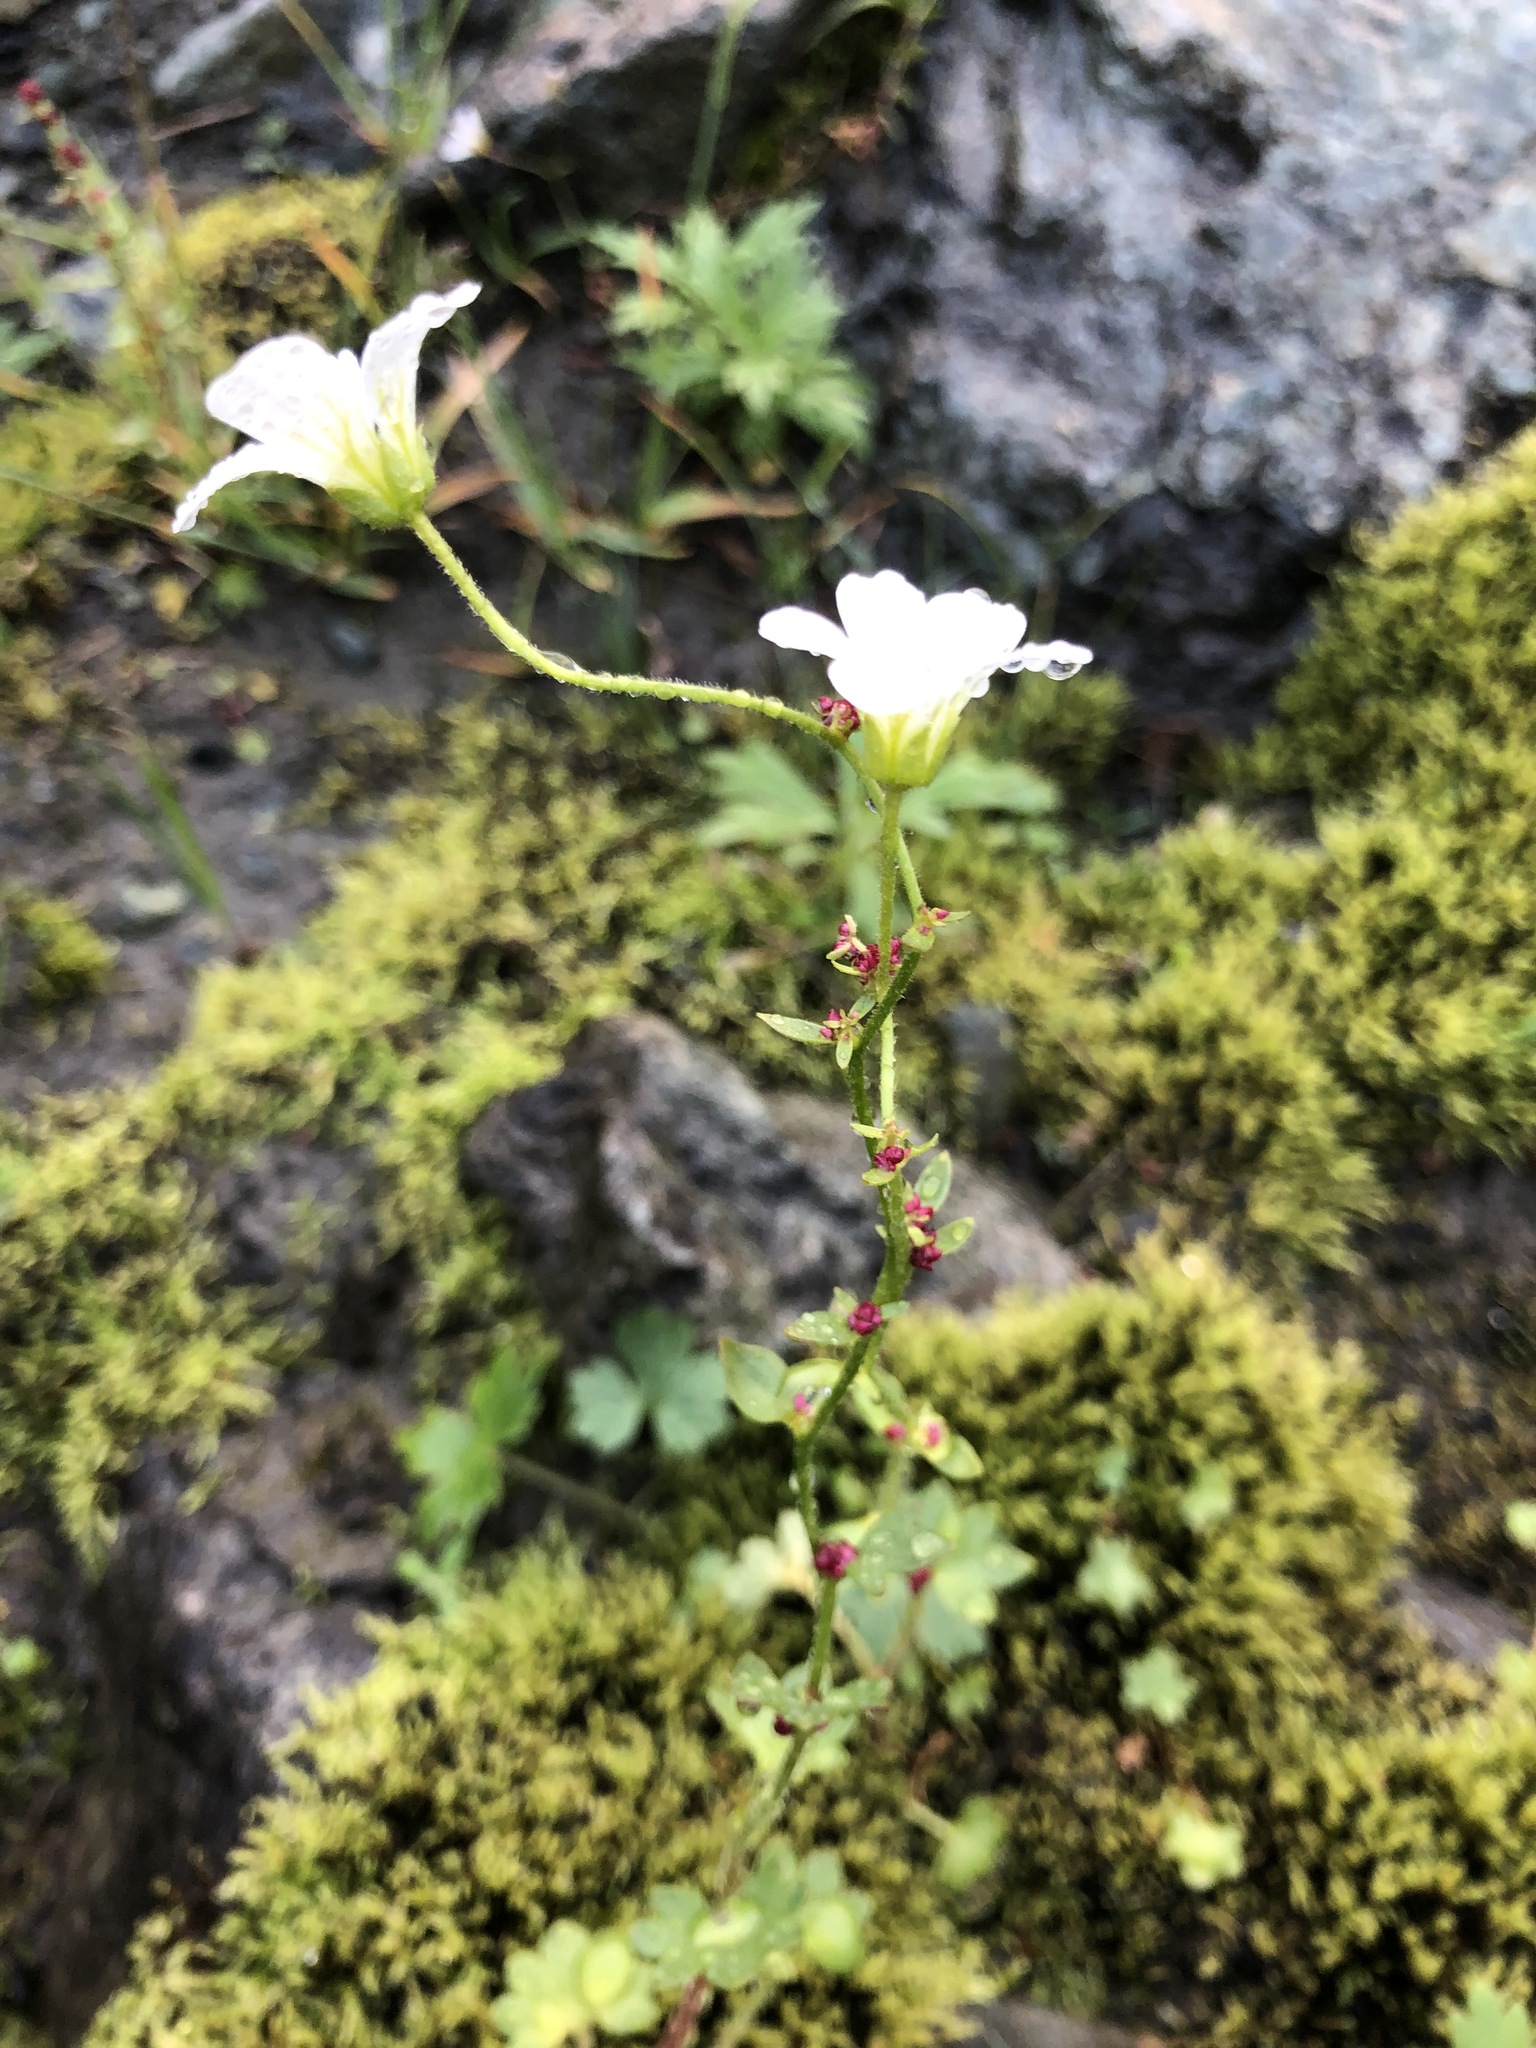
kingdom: Plantae
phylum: Tracheophyta
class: Magnoliopsida
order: Saxifragales
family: Saxifragaceae
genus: Saxifraga
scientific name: Saxifraga cernua
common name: Drooping saxifrage
